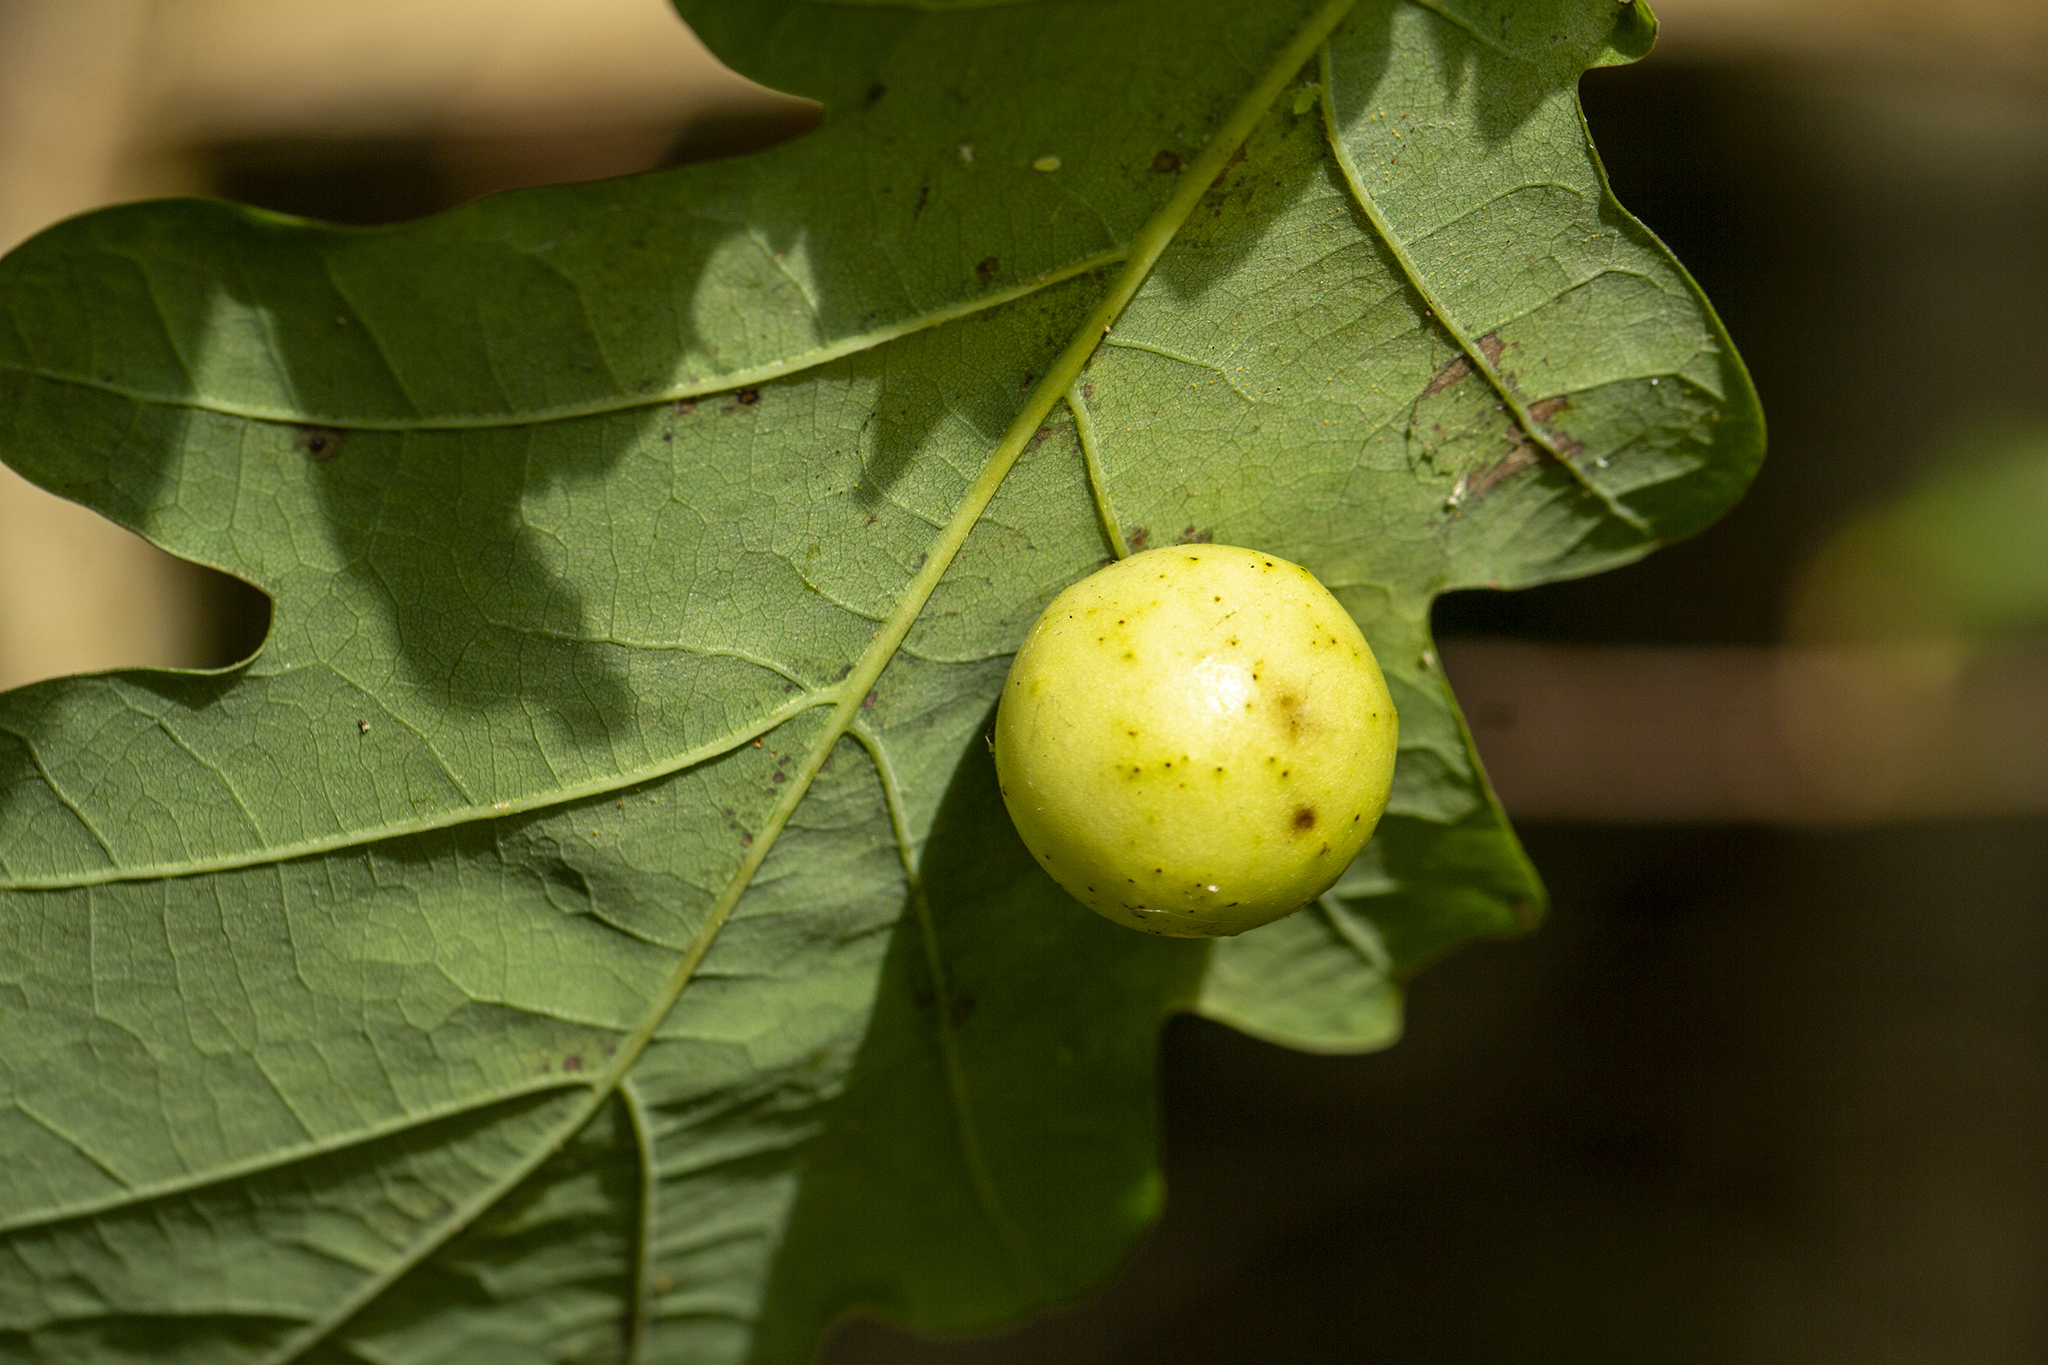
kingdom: Animalia
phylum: Arthropoda
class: Insecta
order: Hymenoptera
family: Cynipidae
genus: Cynips
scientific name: Cynips quercusfolii
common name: Cherry gall
